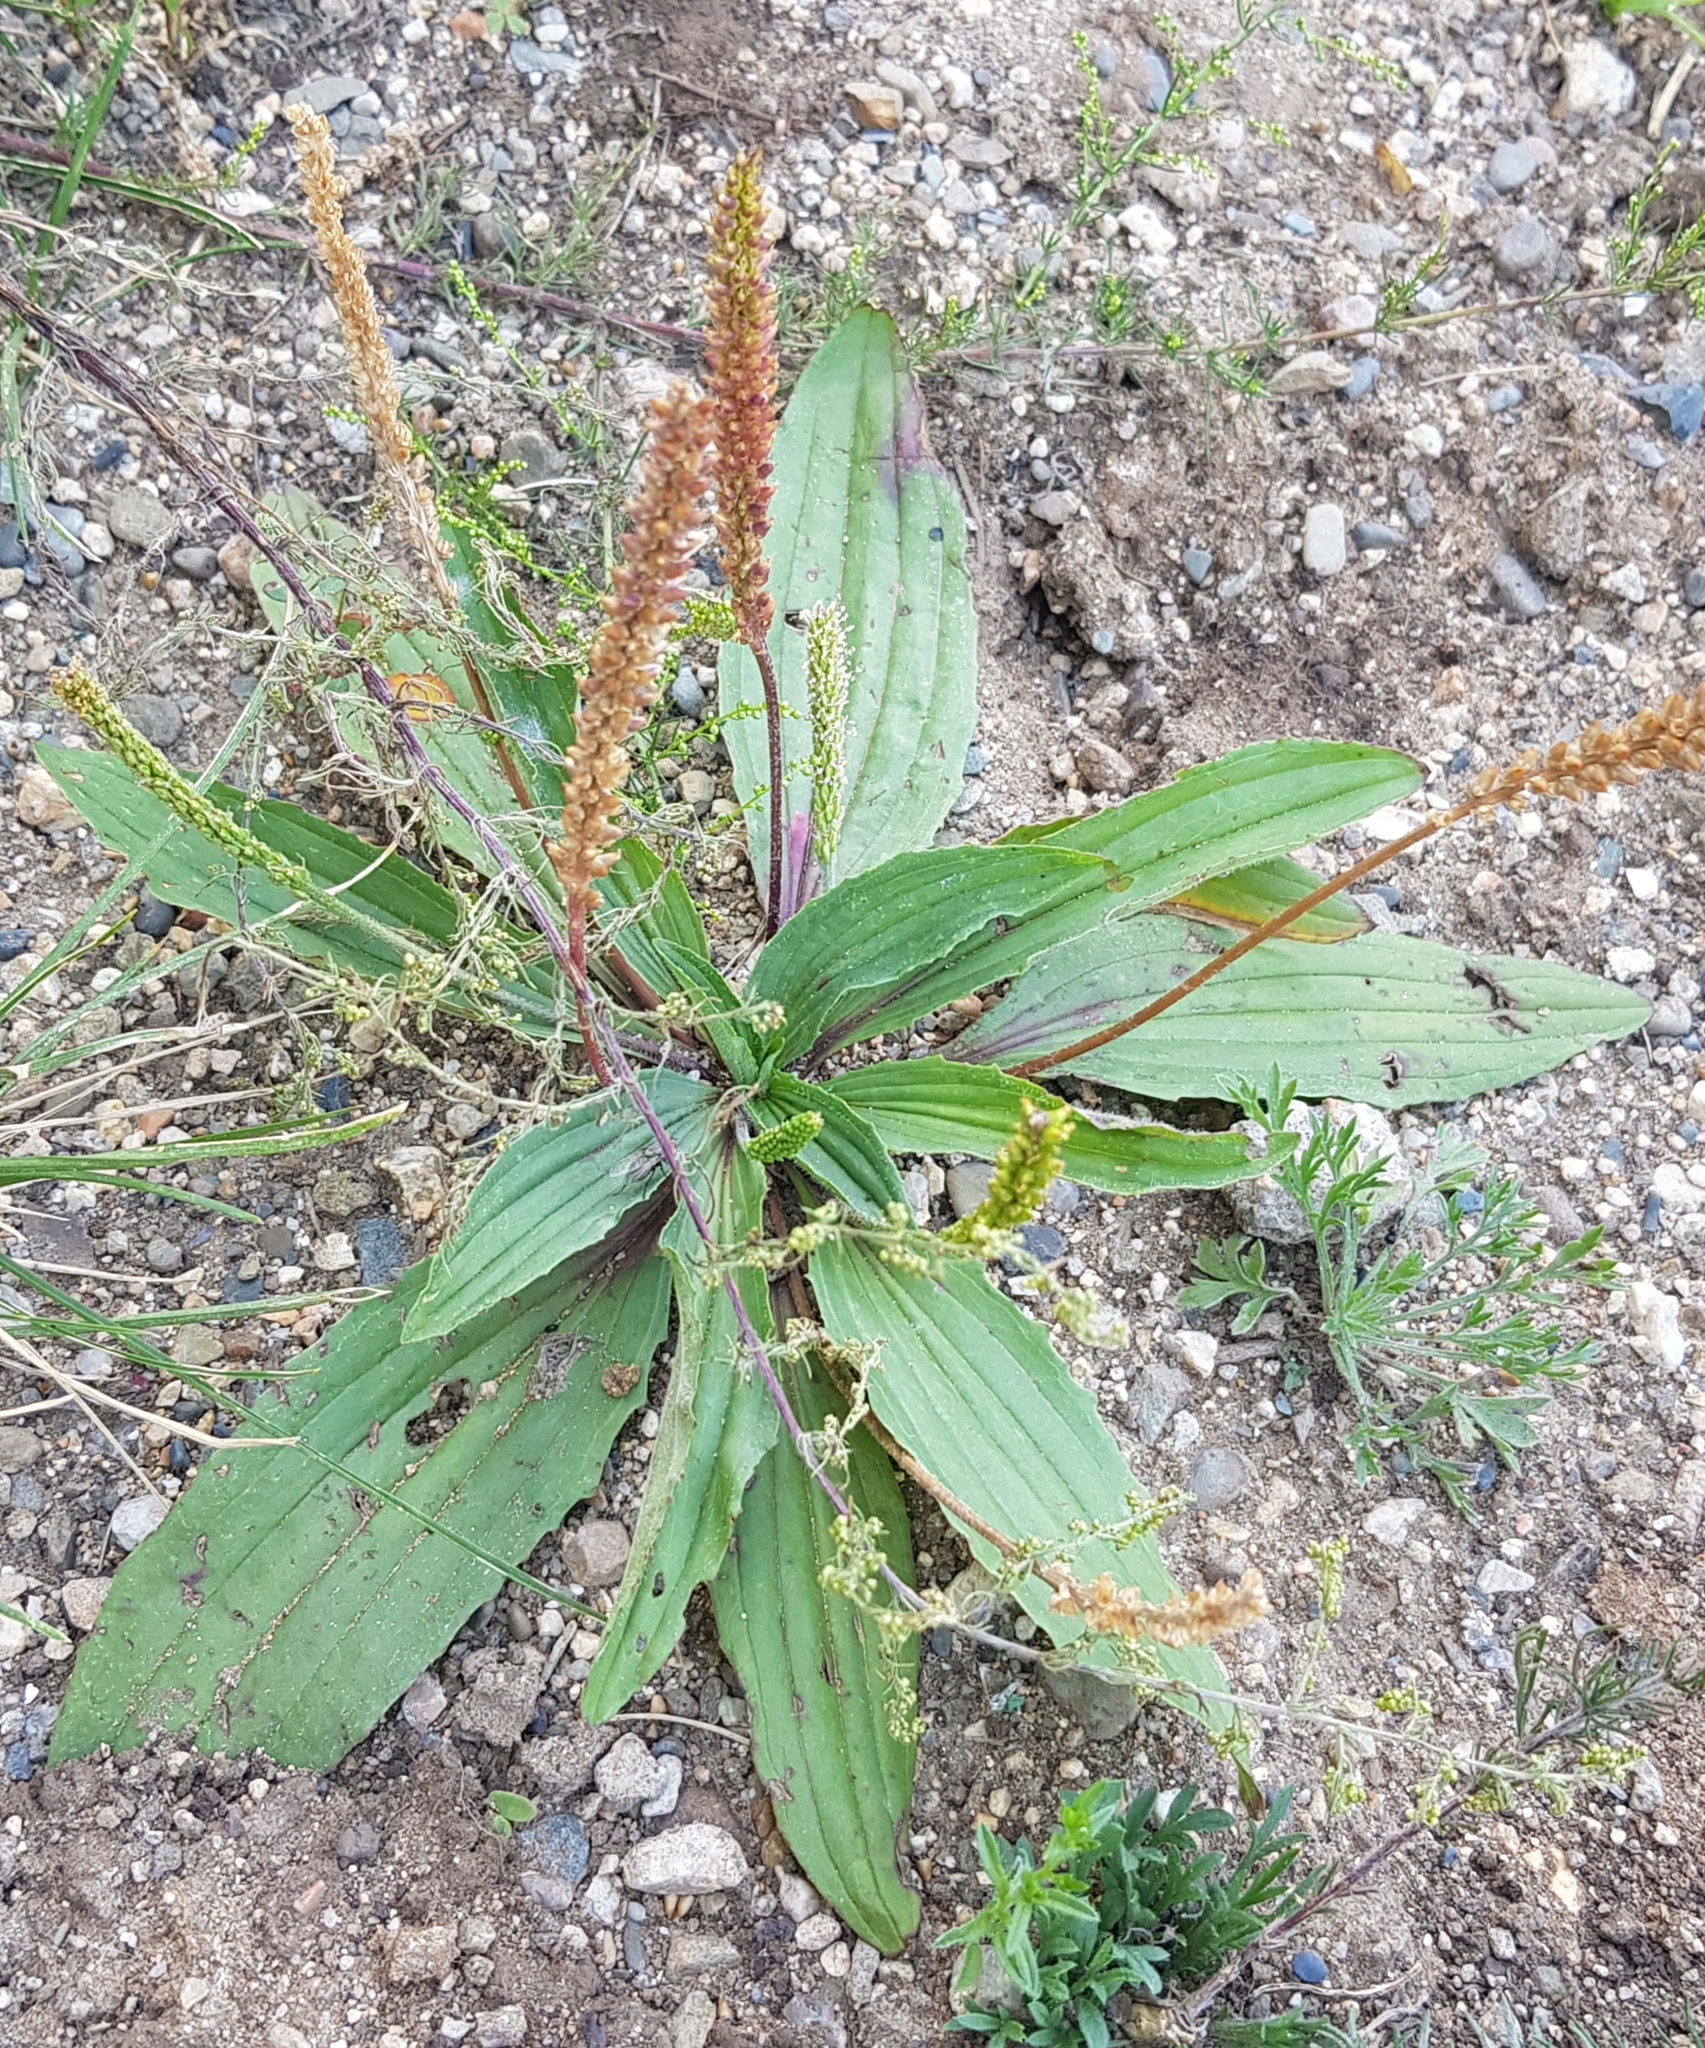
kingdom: Plantae
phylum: Tracheophyta
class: Magnoliopsida
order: Lamiales
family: Plantaginaceae
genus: Plantago
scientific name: Plantago depressa
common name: Depressed plantain
